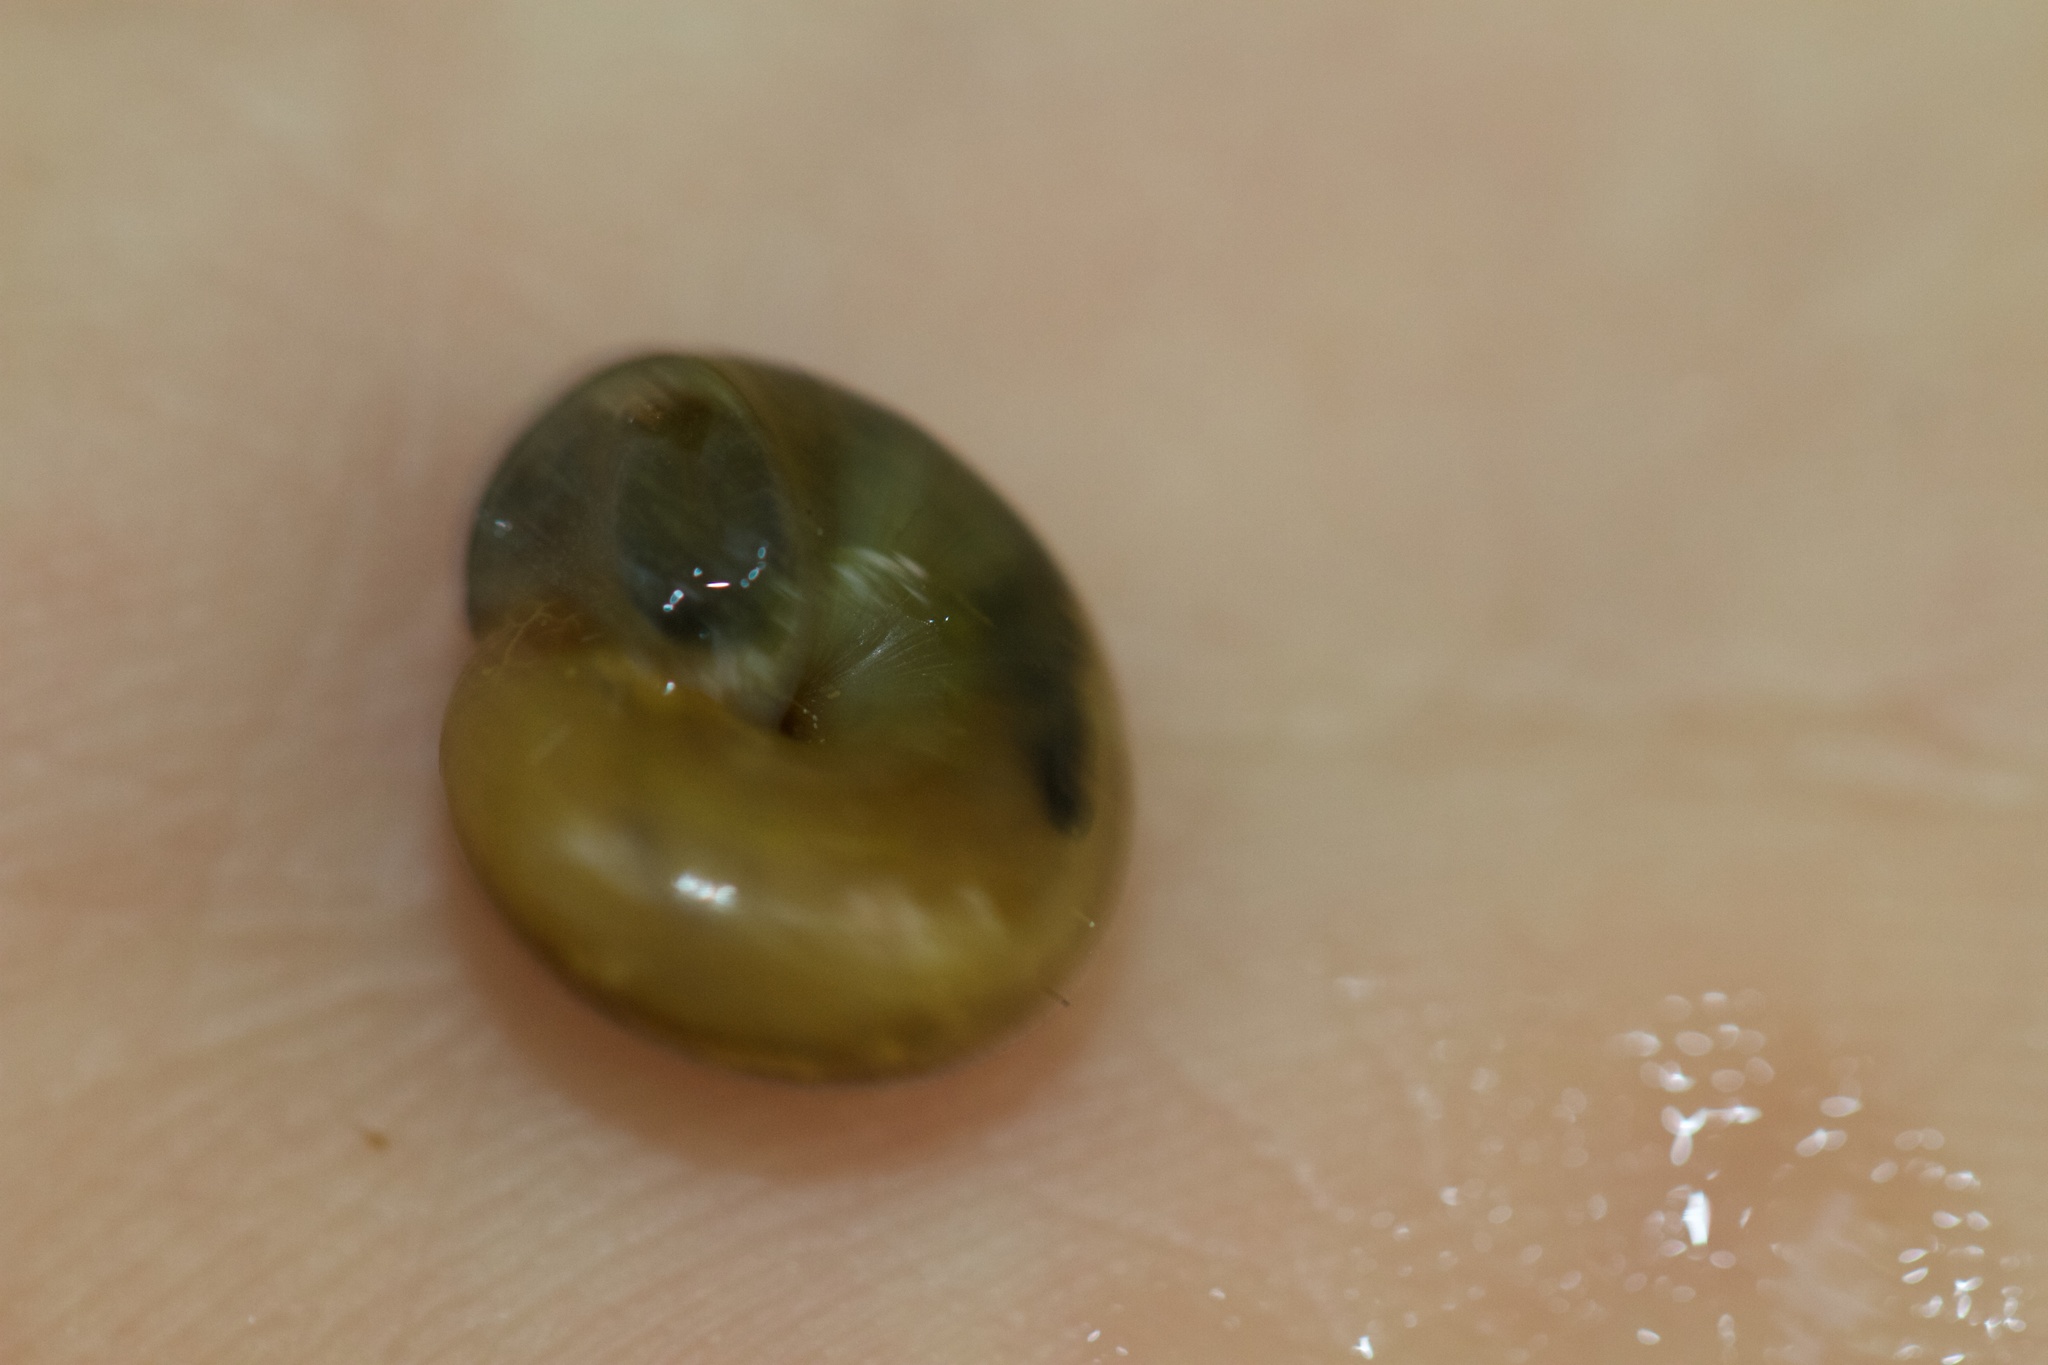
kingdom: Animalia
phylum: Mollusca
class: Gastropoda
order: Stylommatophora
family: Gastrodontidae
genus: Ventridens
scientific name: Ventridens ligera
